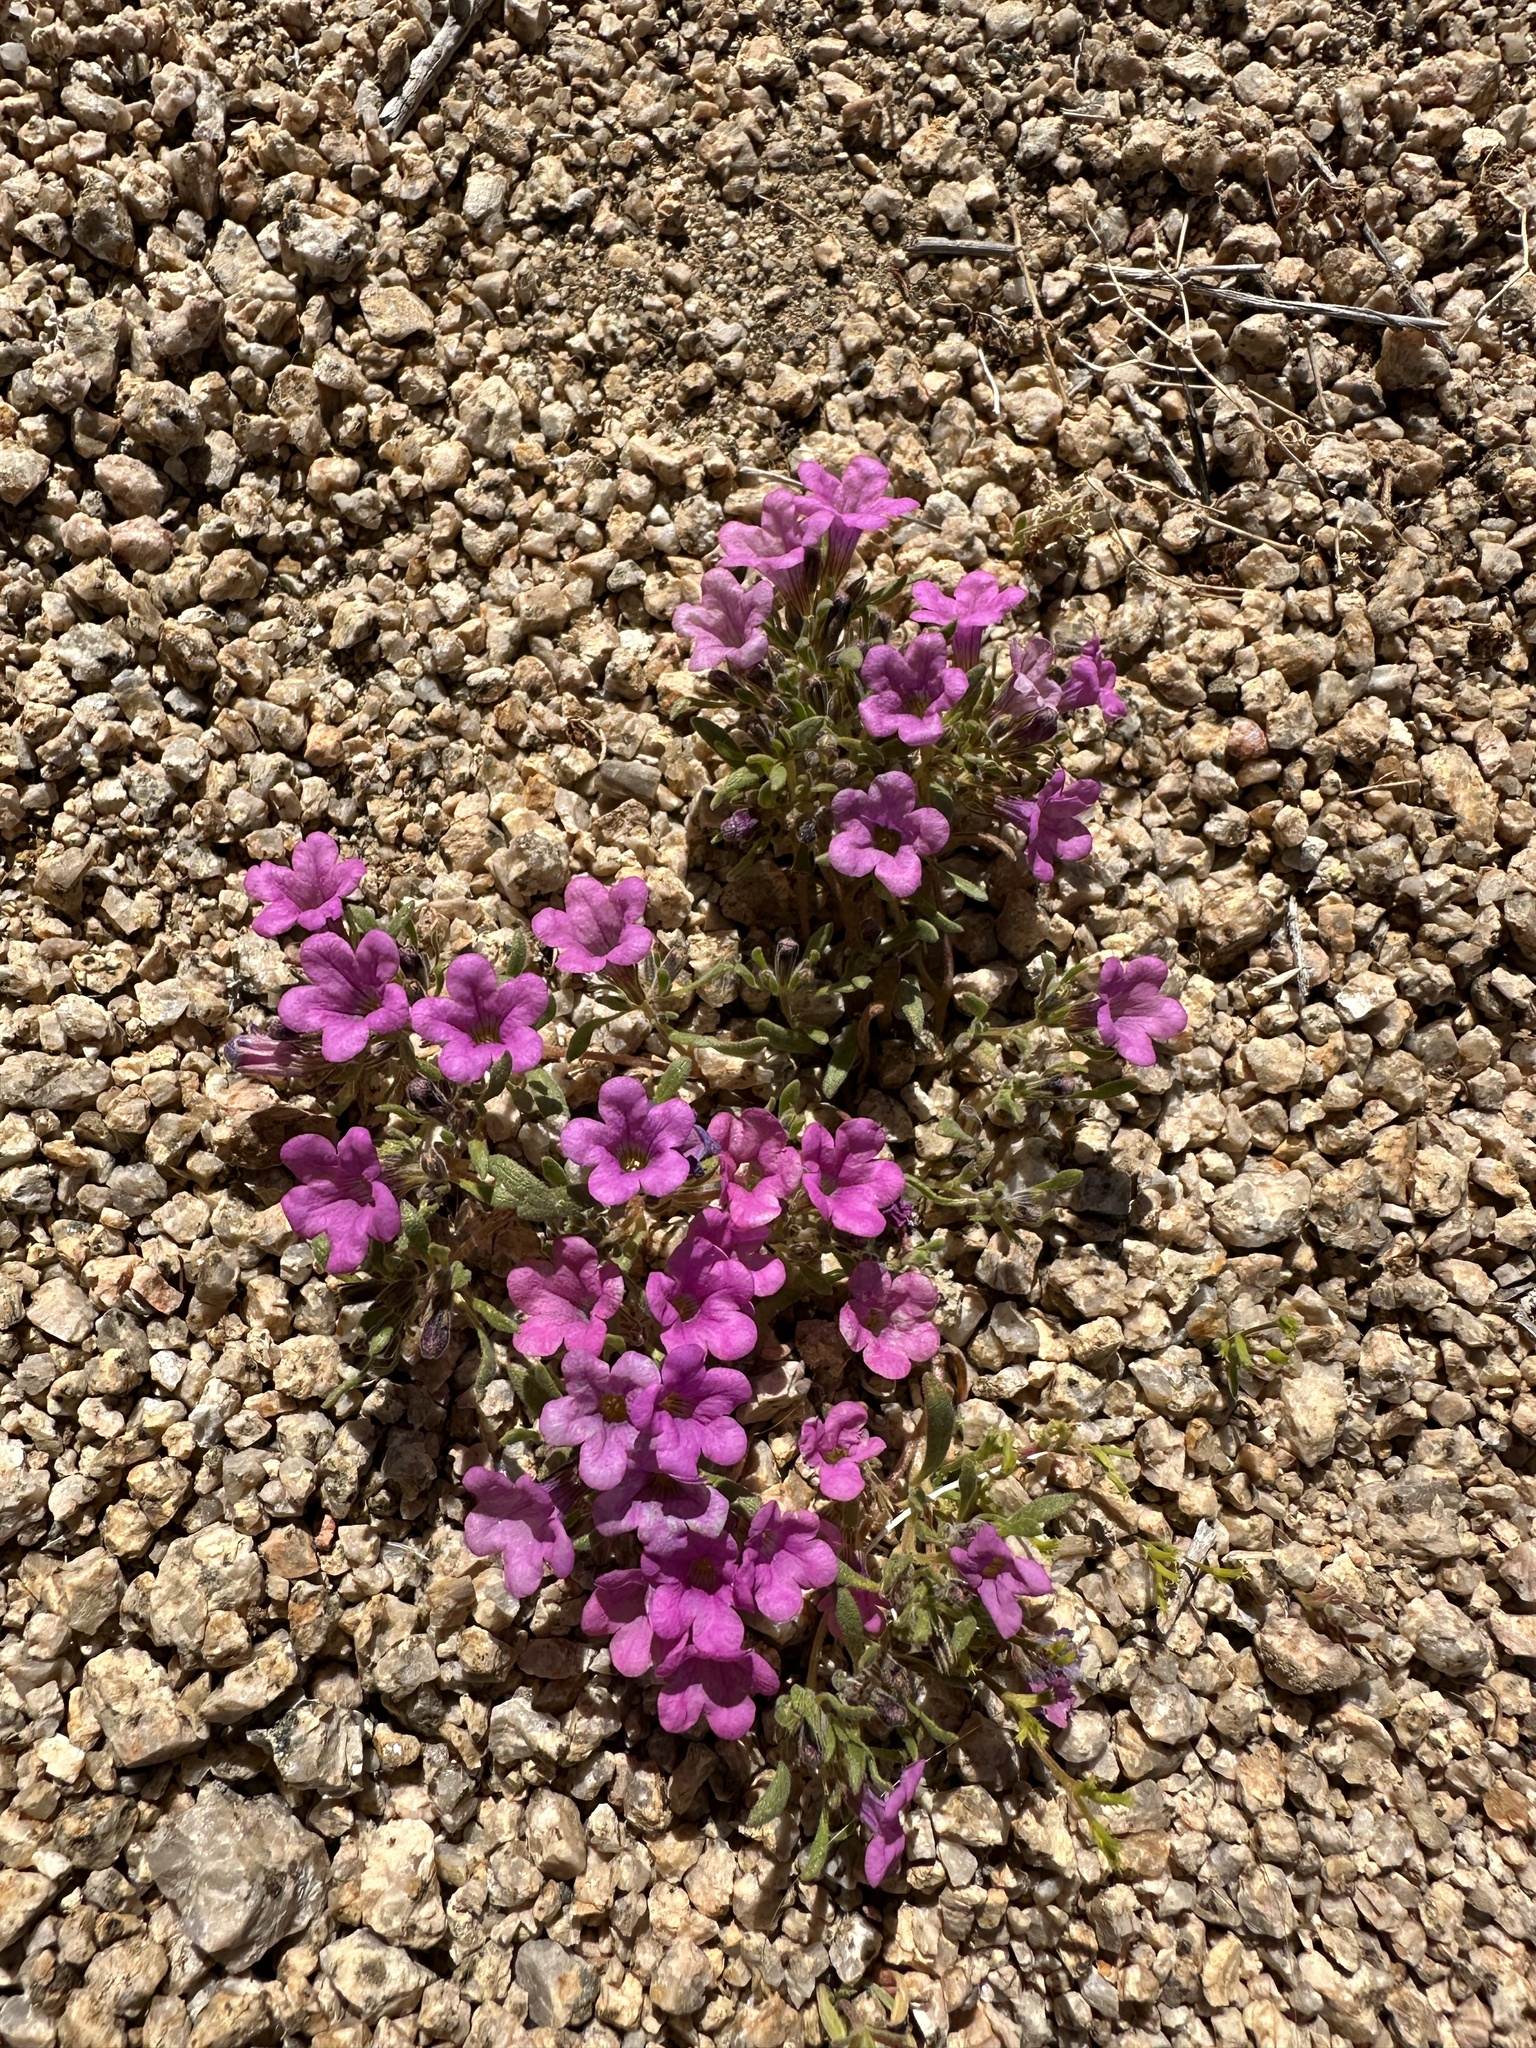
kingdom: Plantae
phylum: Tracheophyta
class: Magnoliopsida
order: Boraginales
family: Namaceae
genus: Nama
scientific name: Nama demissa
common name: Leafy nama
